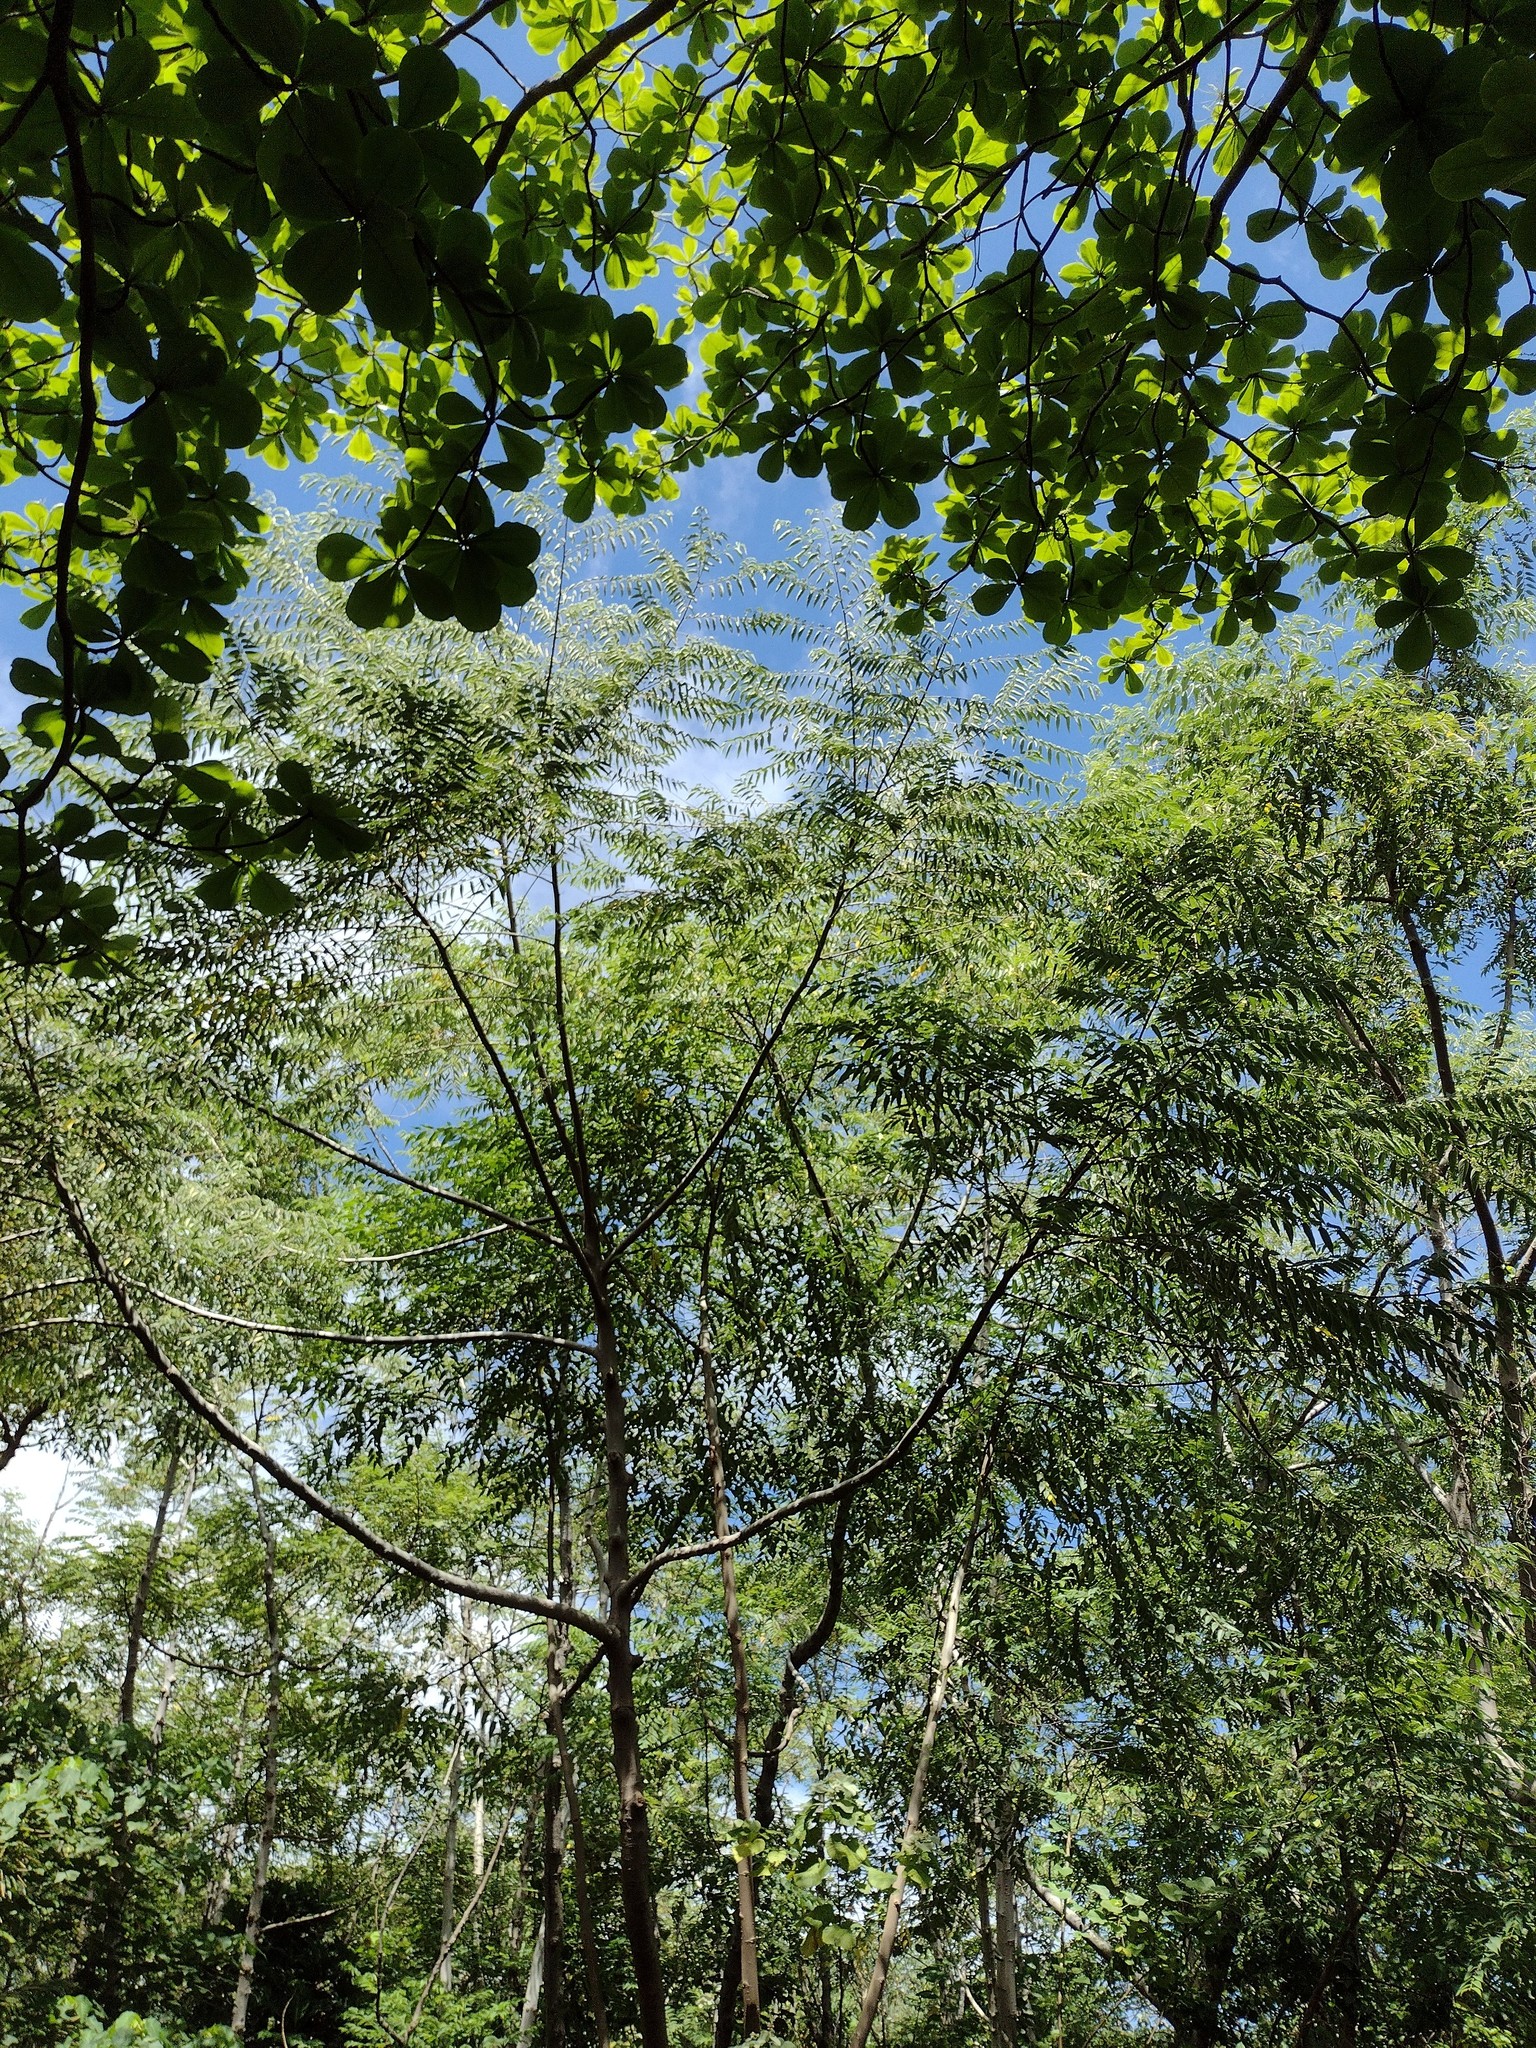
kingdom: Plantae
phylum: Tracheophyta
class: Magnoliopsida
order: Rosales
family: Cannabaceae
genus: Trema
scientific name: Trema orientale
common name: Indian charcoal tree
